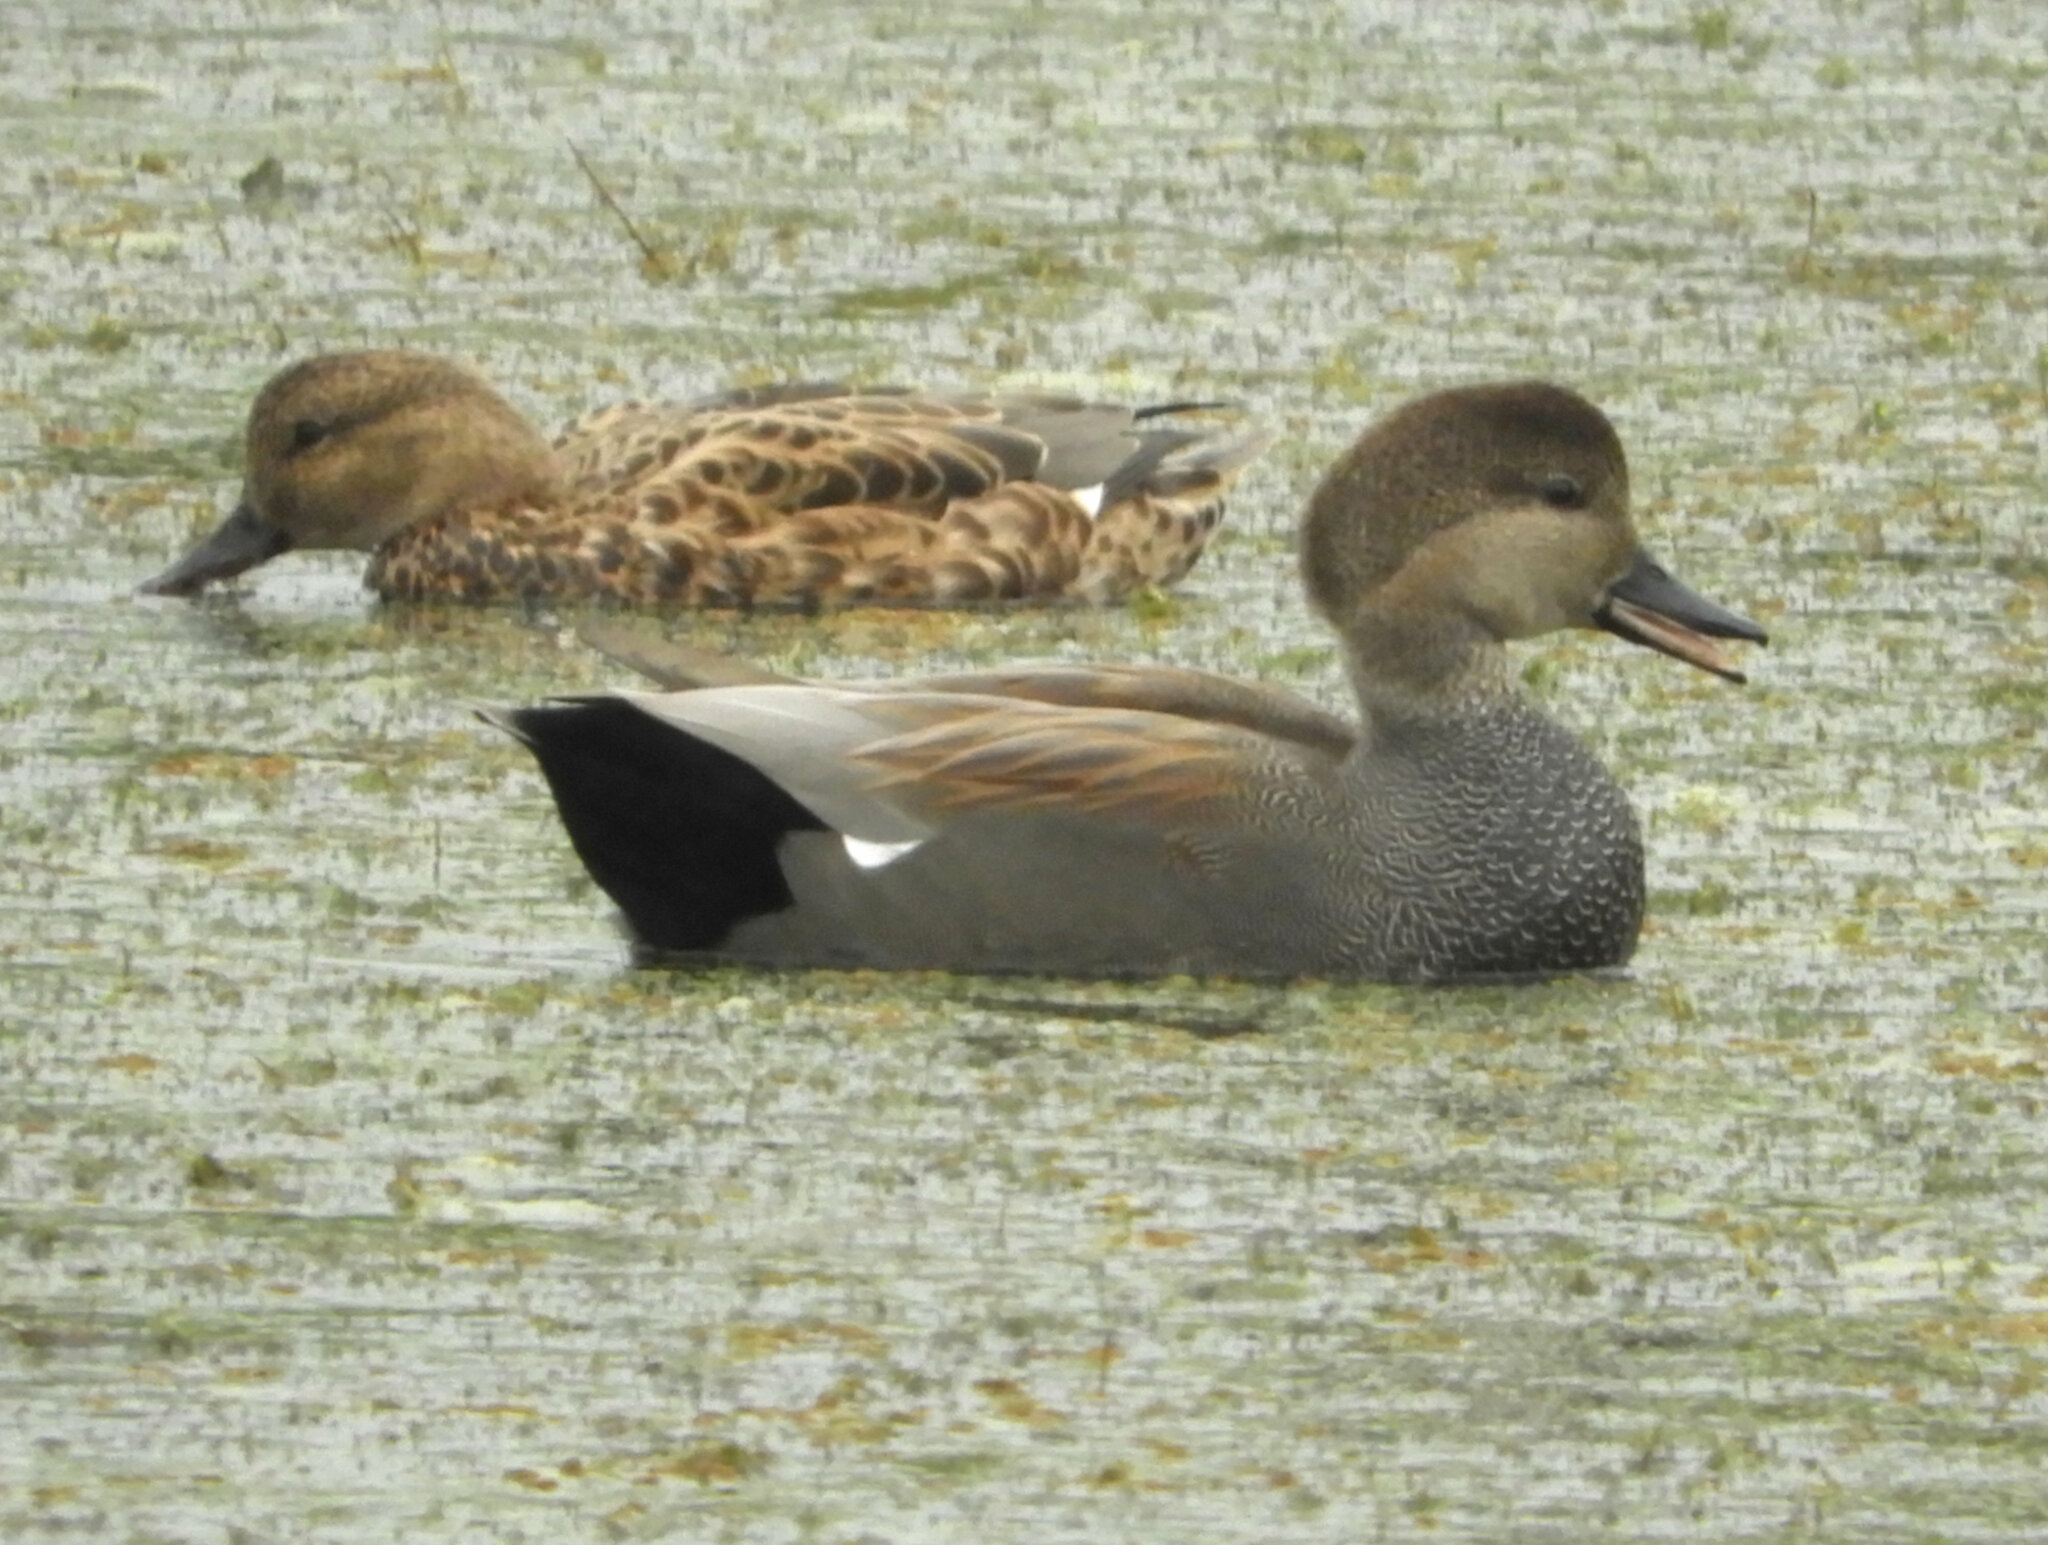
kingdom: Animalia
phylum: Chordata
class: Aves
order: Anseriformes
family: Anatidae
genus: Mareca
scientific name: Mareca strepera
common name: Gadwall
